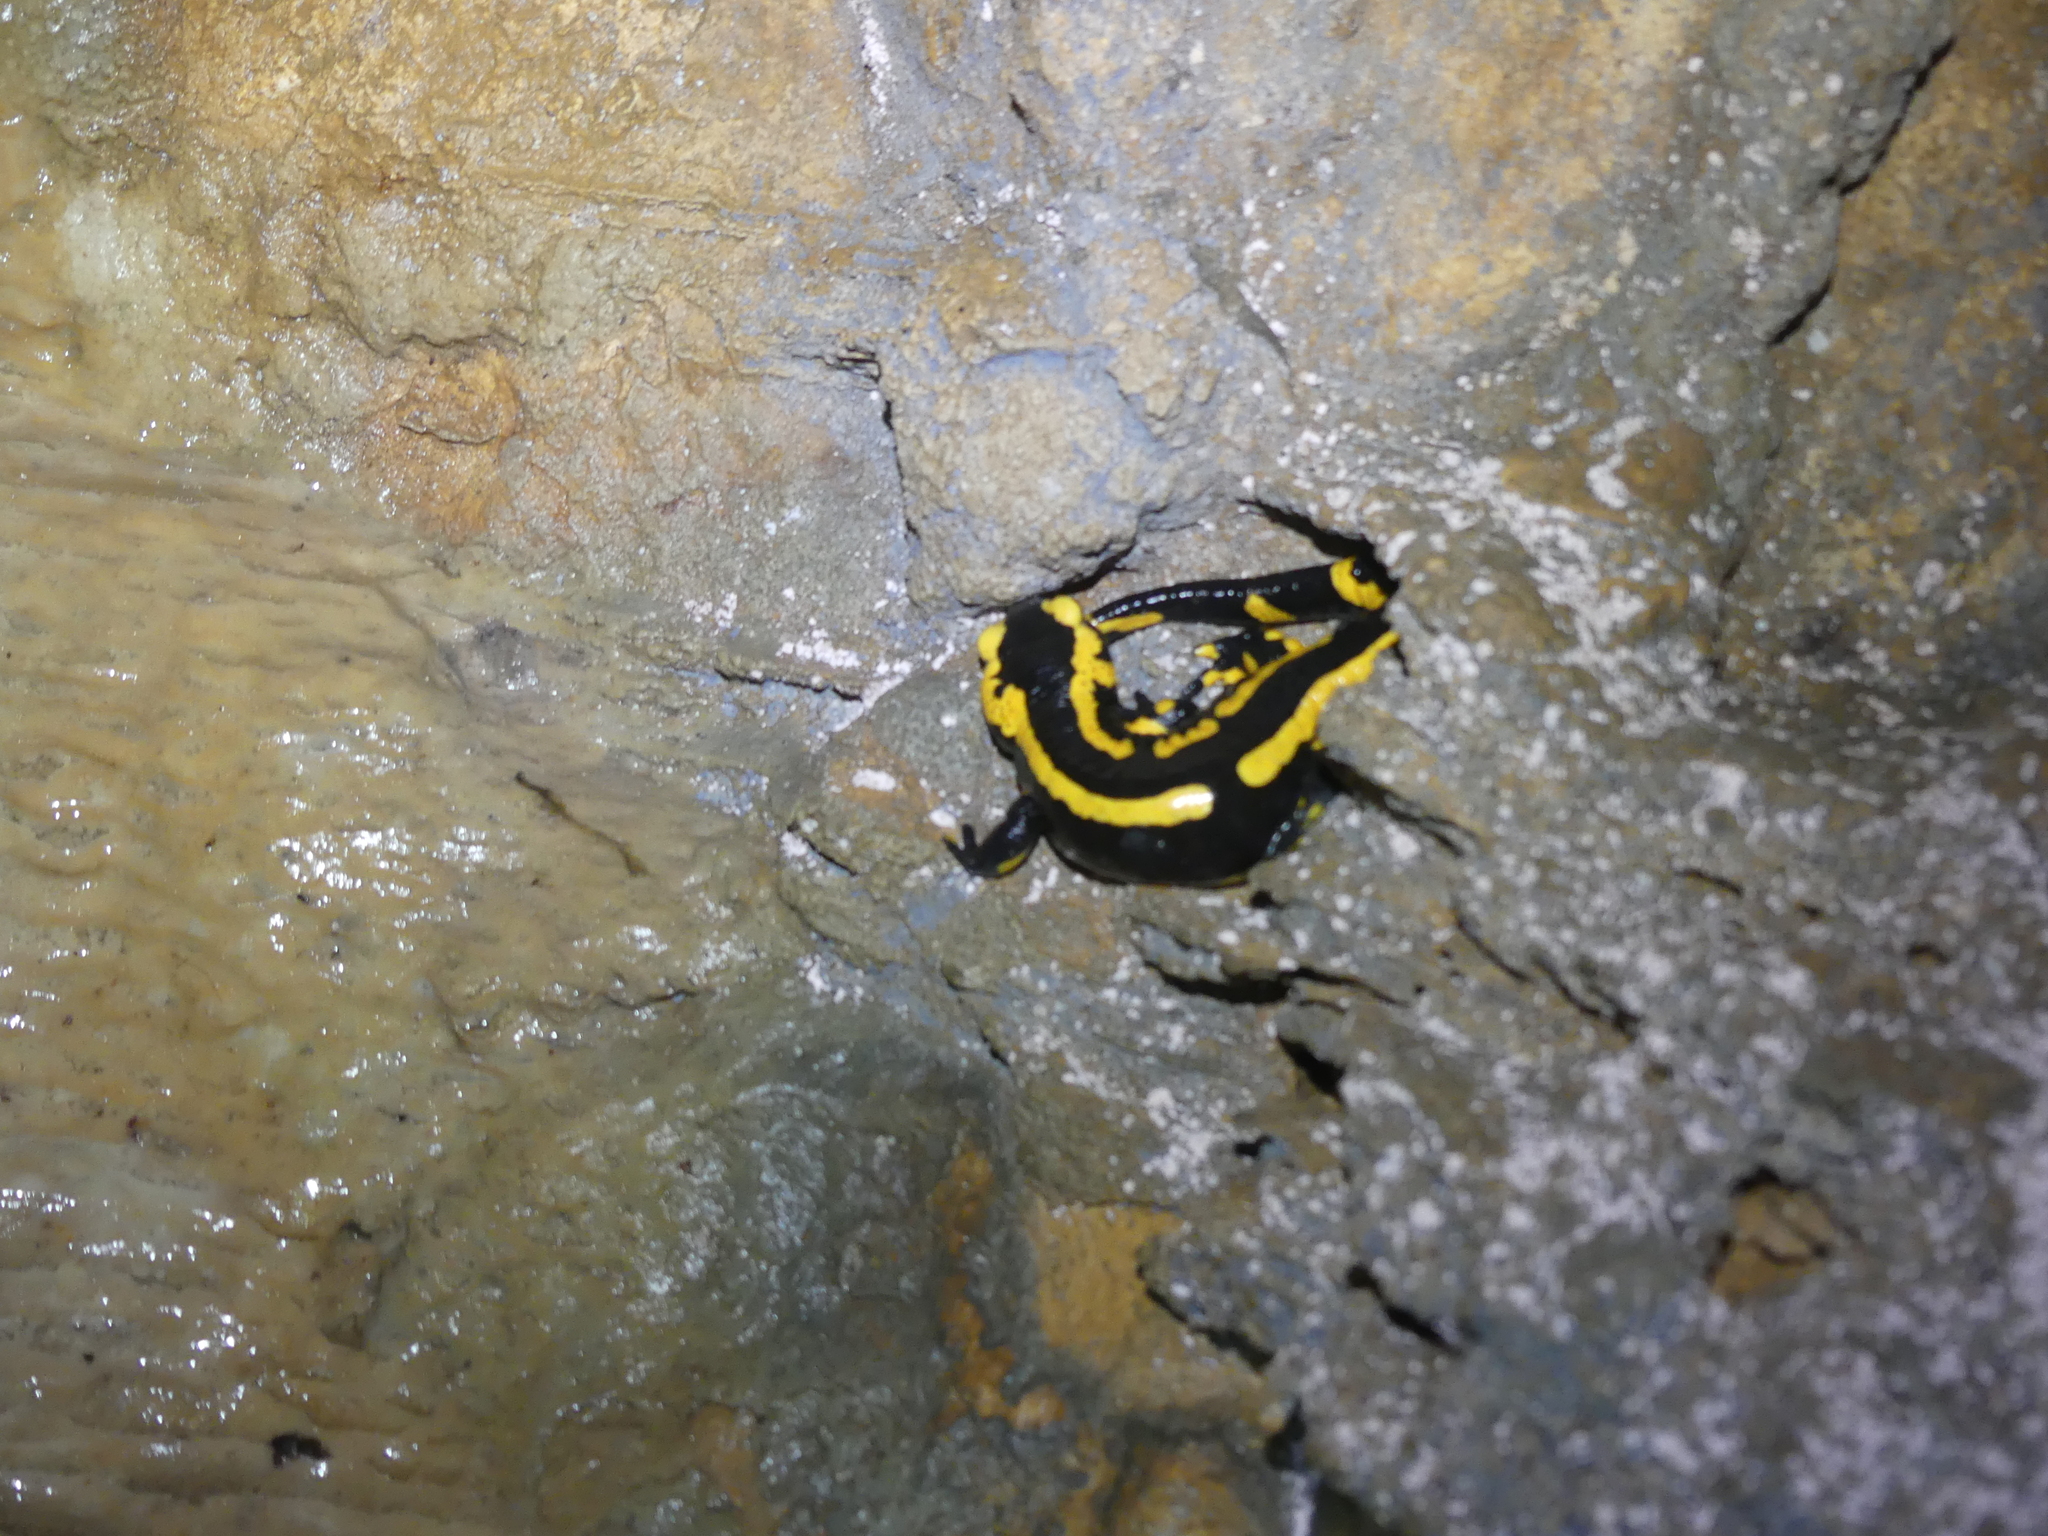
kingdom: Animalia
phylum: Chordata
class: Amphibia
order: Caudata
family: Salamandridae
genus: Salamandra
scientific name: Salamandra salamandra
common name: Fire salamander
